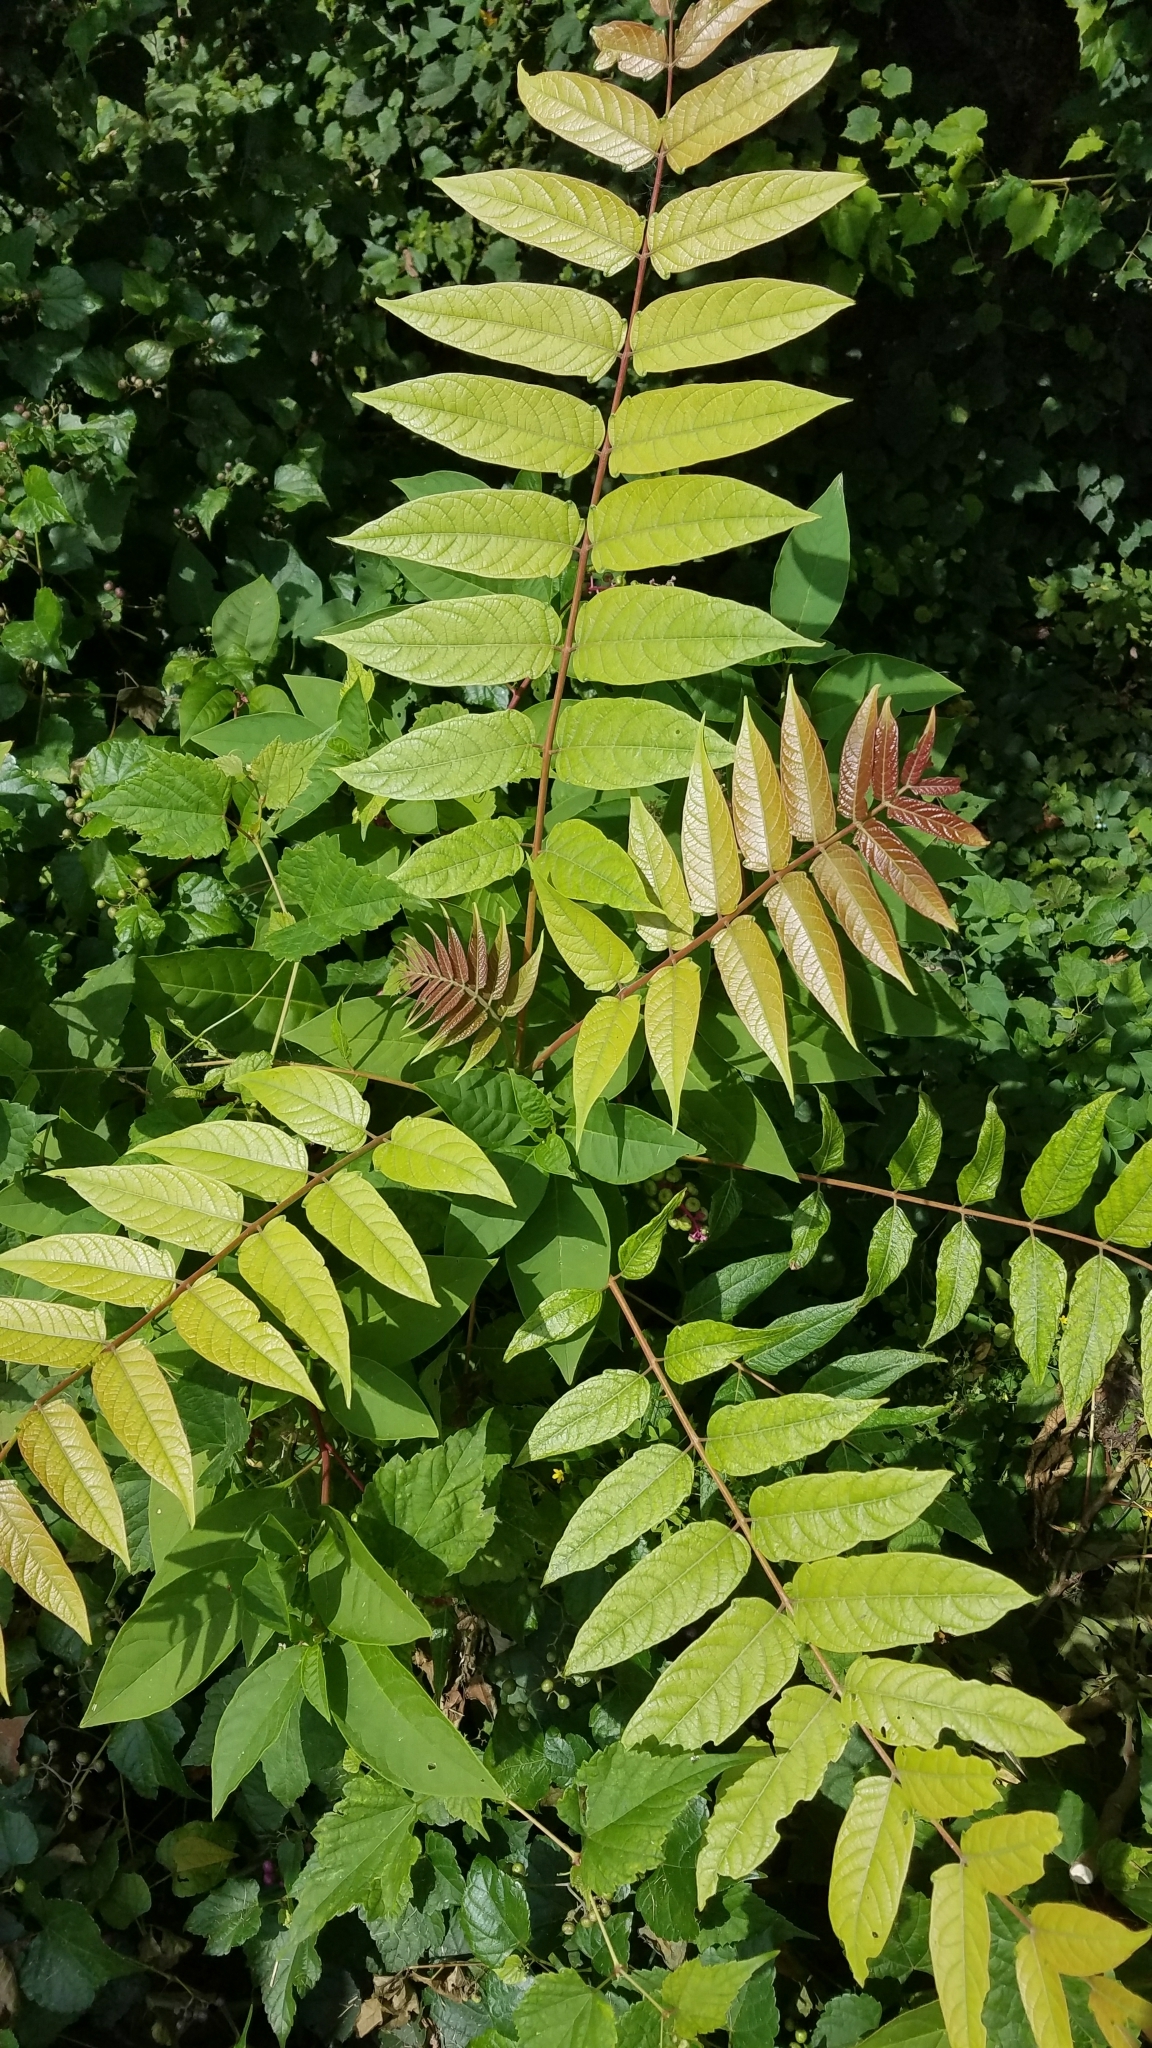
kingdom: Plantae
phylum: Tracheophyta
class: Magnoliopsida
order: Sapindales
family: Simaroubaceae
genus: Ailanthus
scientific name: Ailanthus altissima
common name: Tree-of-heaven
